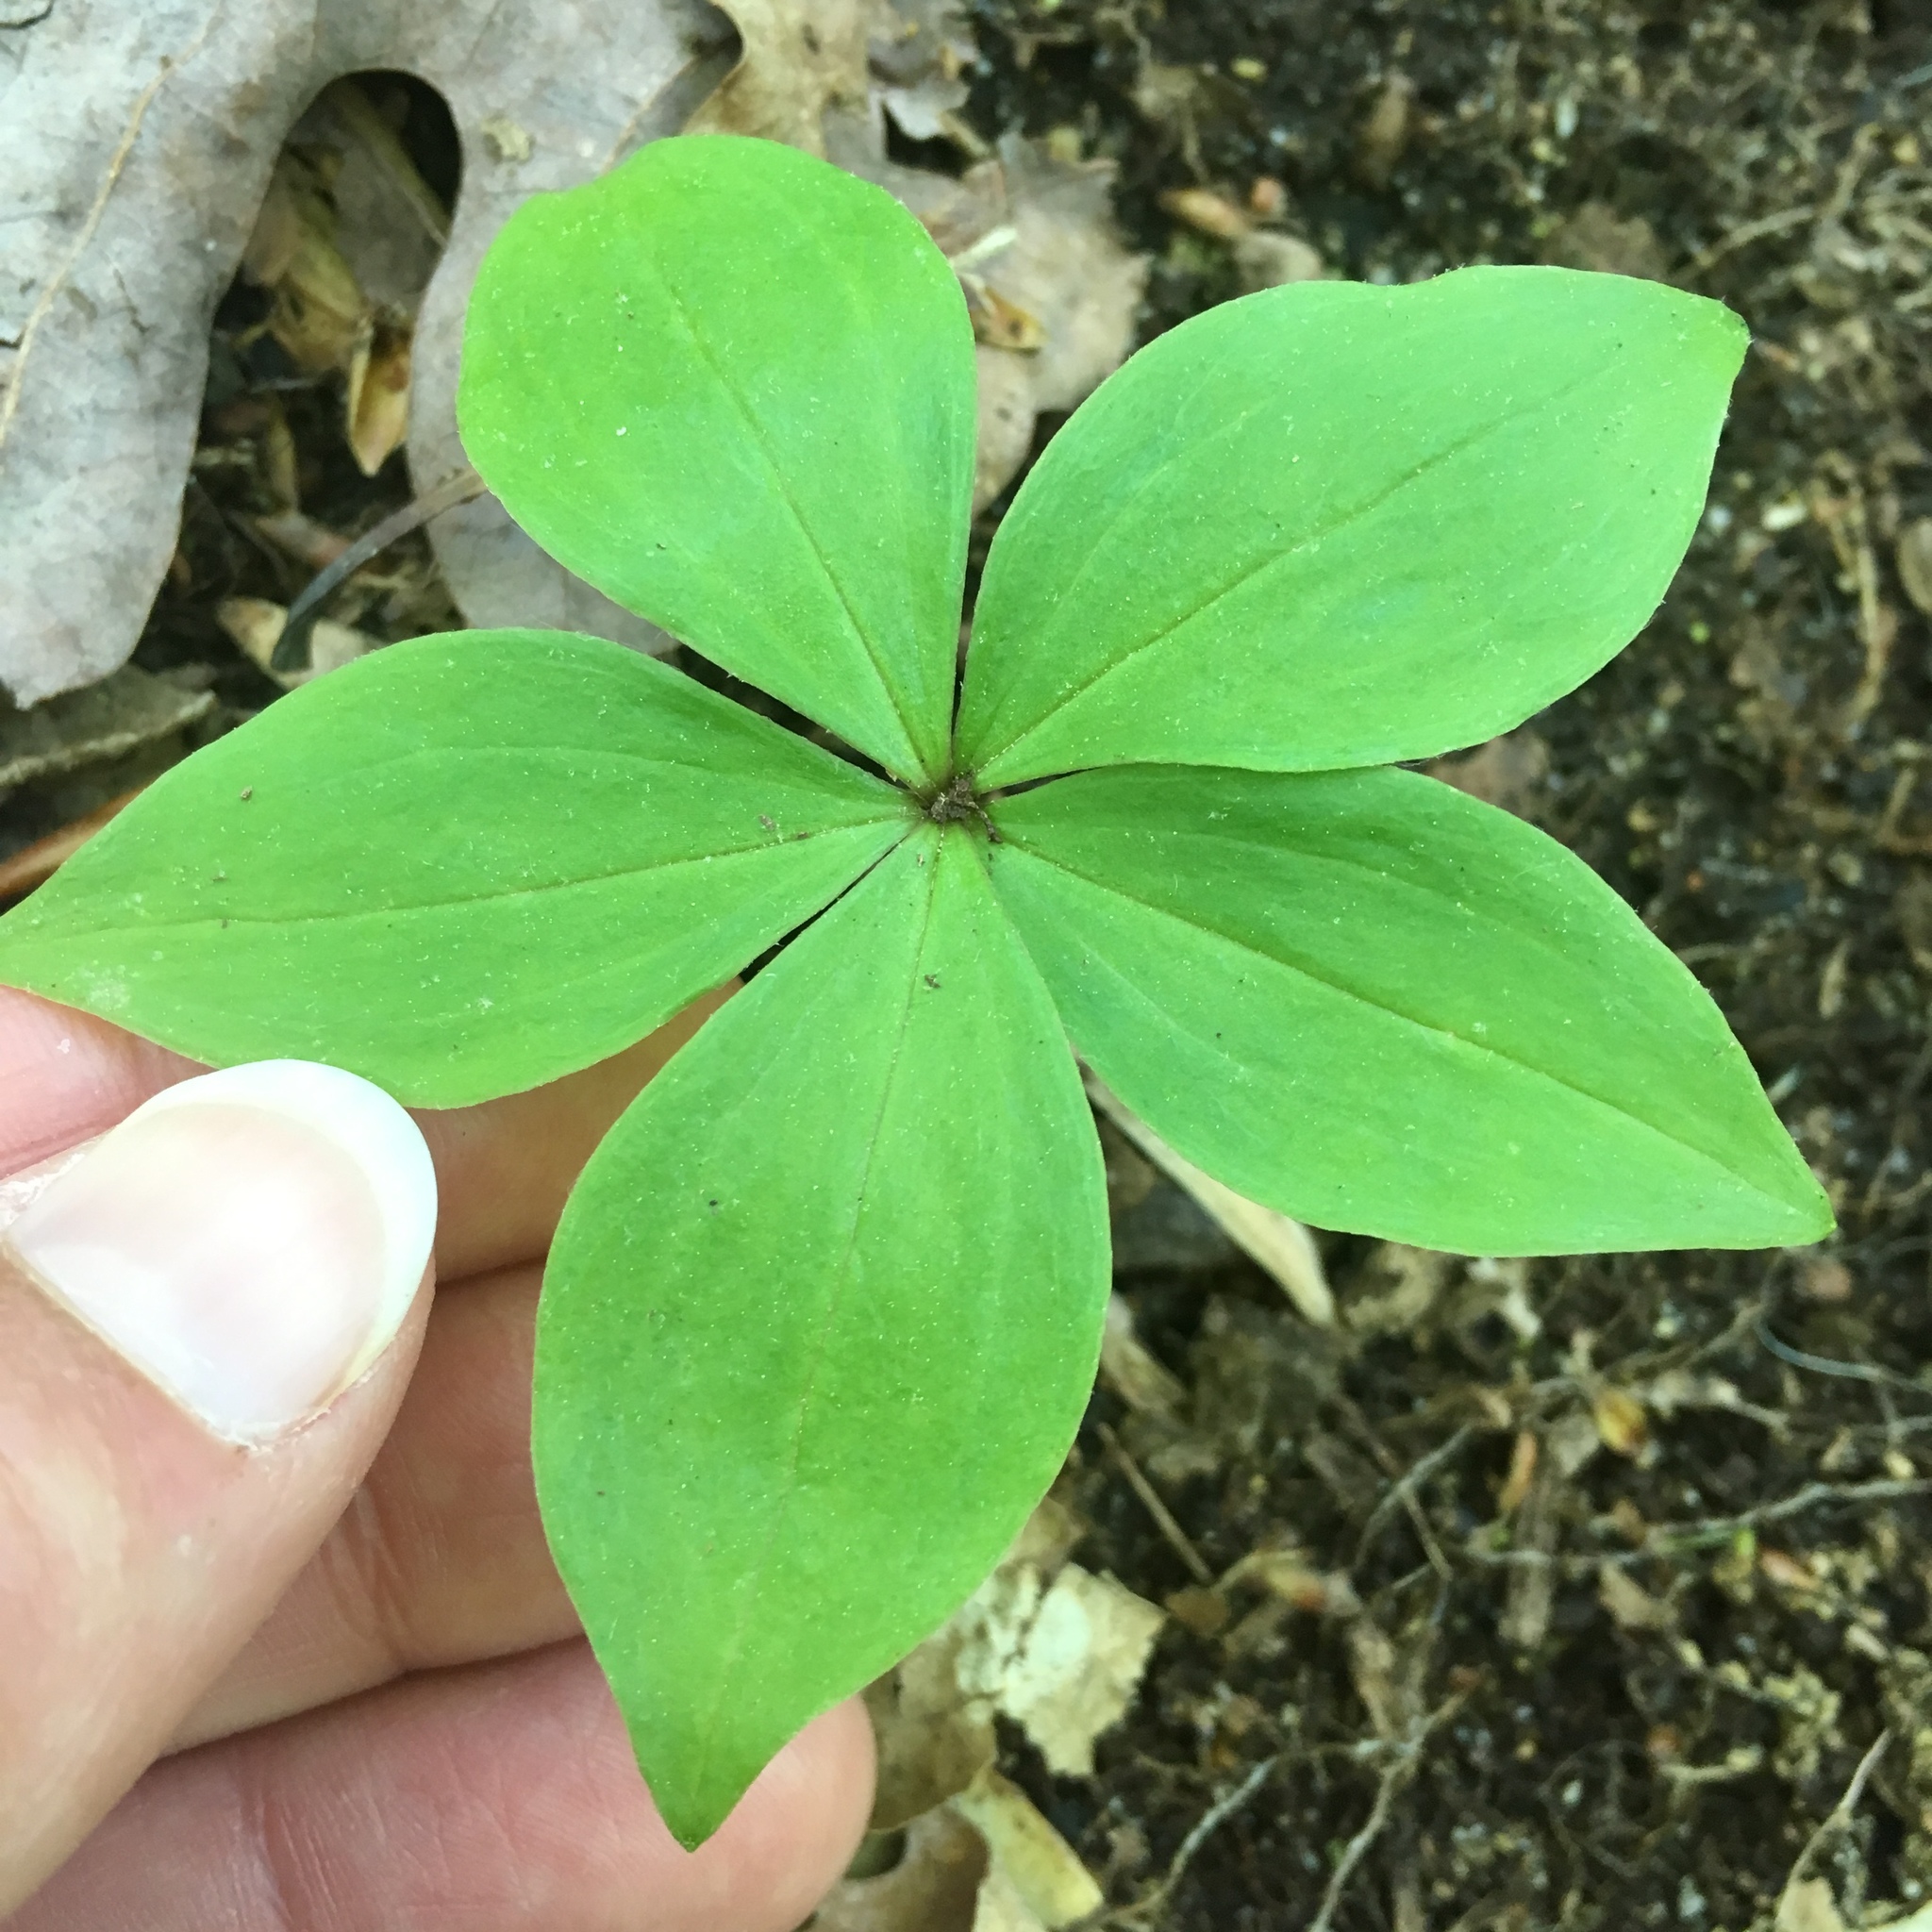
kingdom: Plantae
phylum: Tracheophyta
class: Liliopsida
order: Liliales
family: Liliaceae
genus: Medeola
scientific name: Medeola virginiana
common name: Indian cucumber-root
